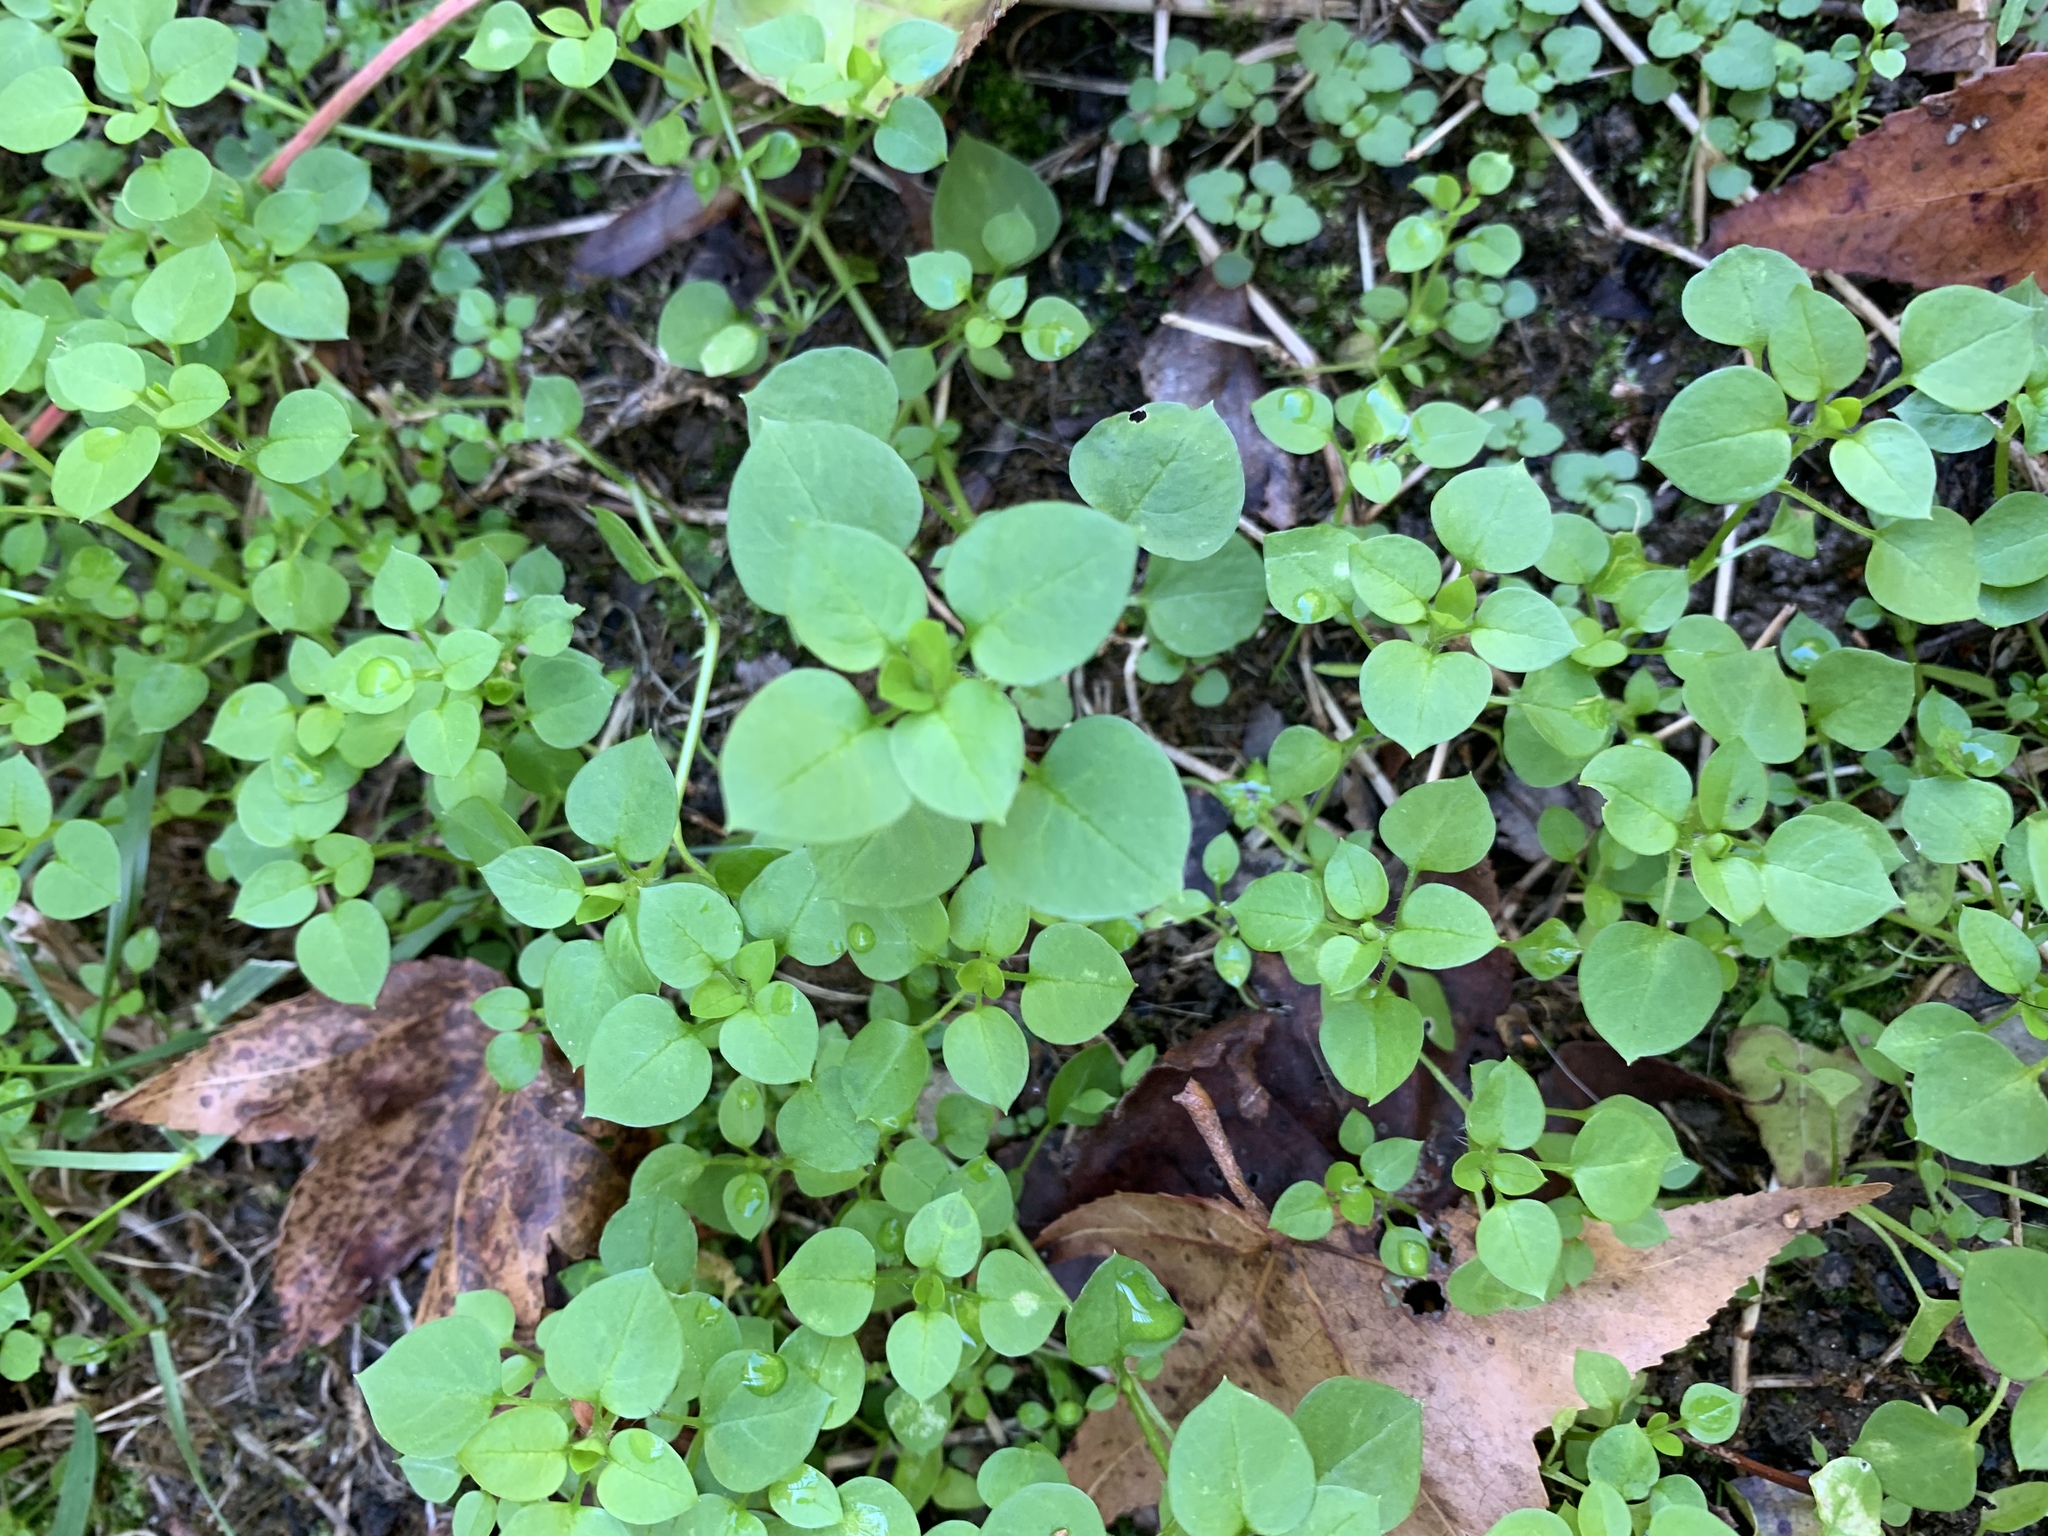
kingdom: Plantae
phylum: Tracheophyta
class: Magnoliopsida
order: Caryophyllales
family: Caryophyllaceae
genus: Stellaria
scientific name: Stellaria media
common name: Common chickweed
